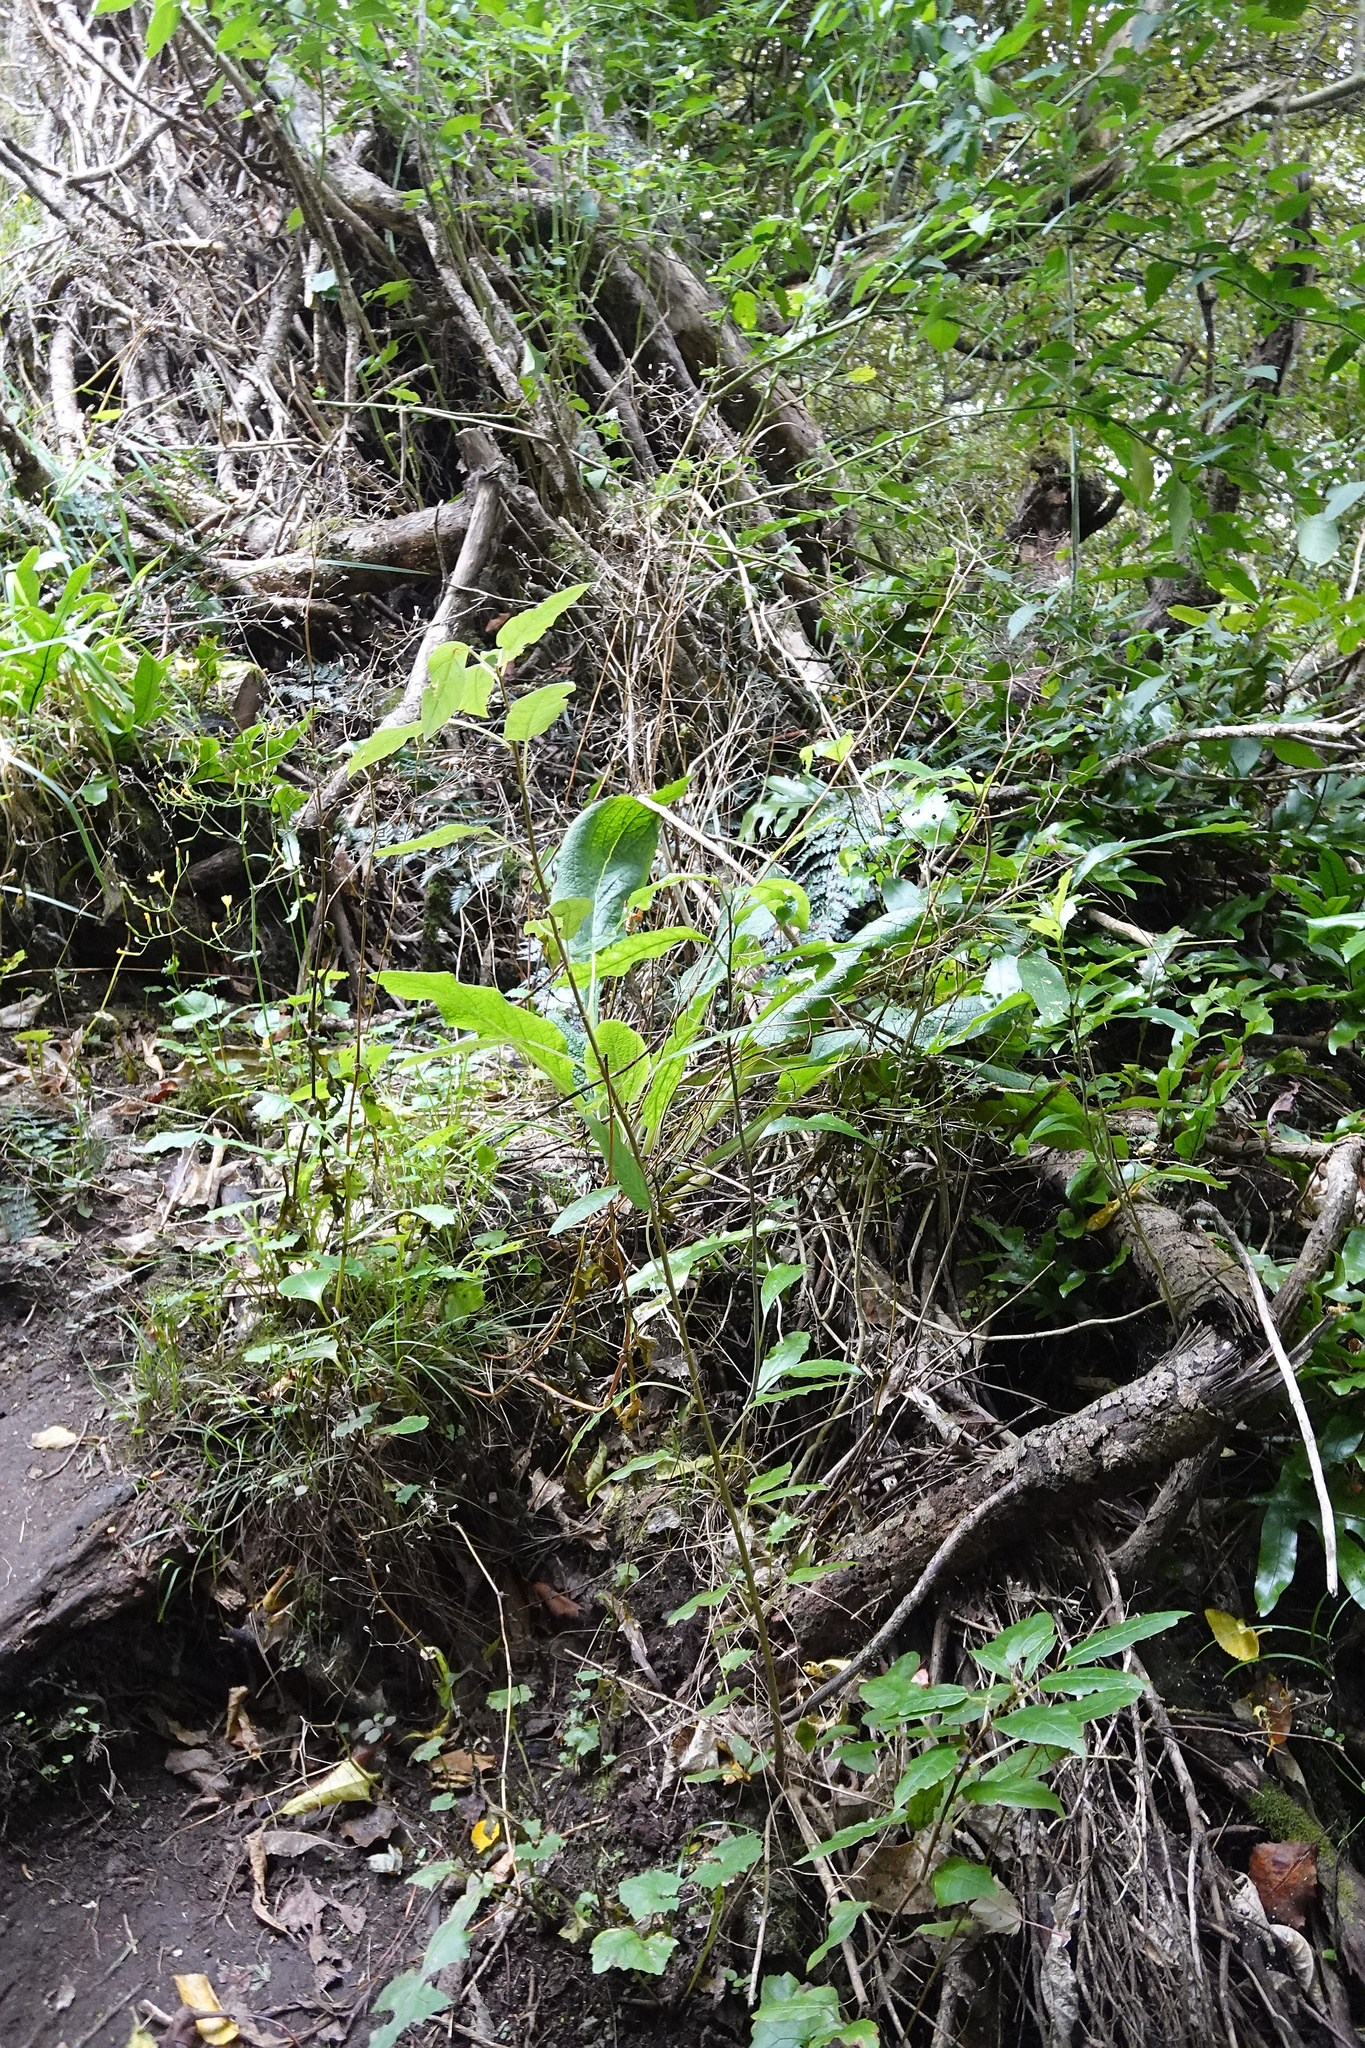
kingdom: Plantae
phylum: Tracheophyta
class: Magnoliopsida
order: Myrtales
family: Onagraceae
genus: Fuchsia
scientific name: Fuchsia excorticata
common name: Tree fuchsia
